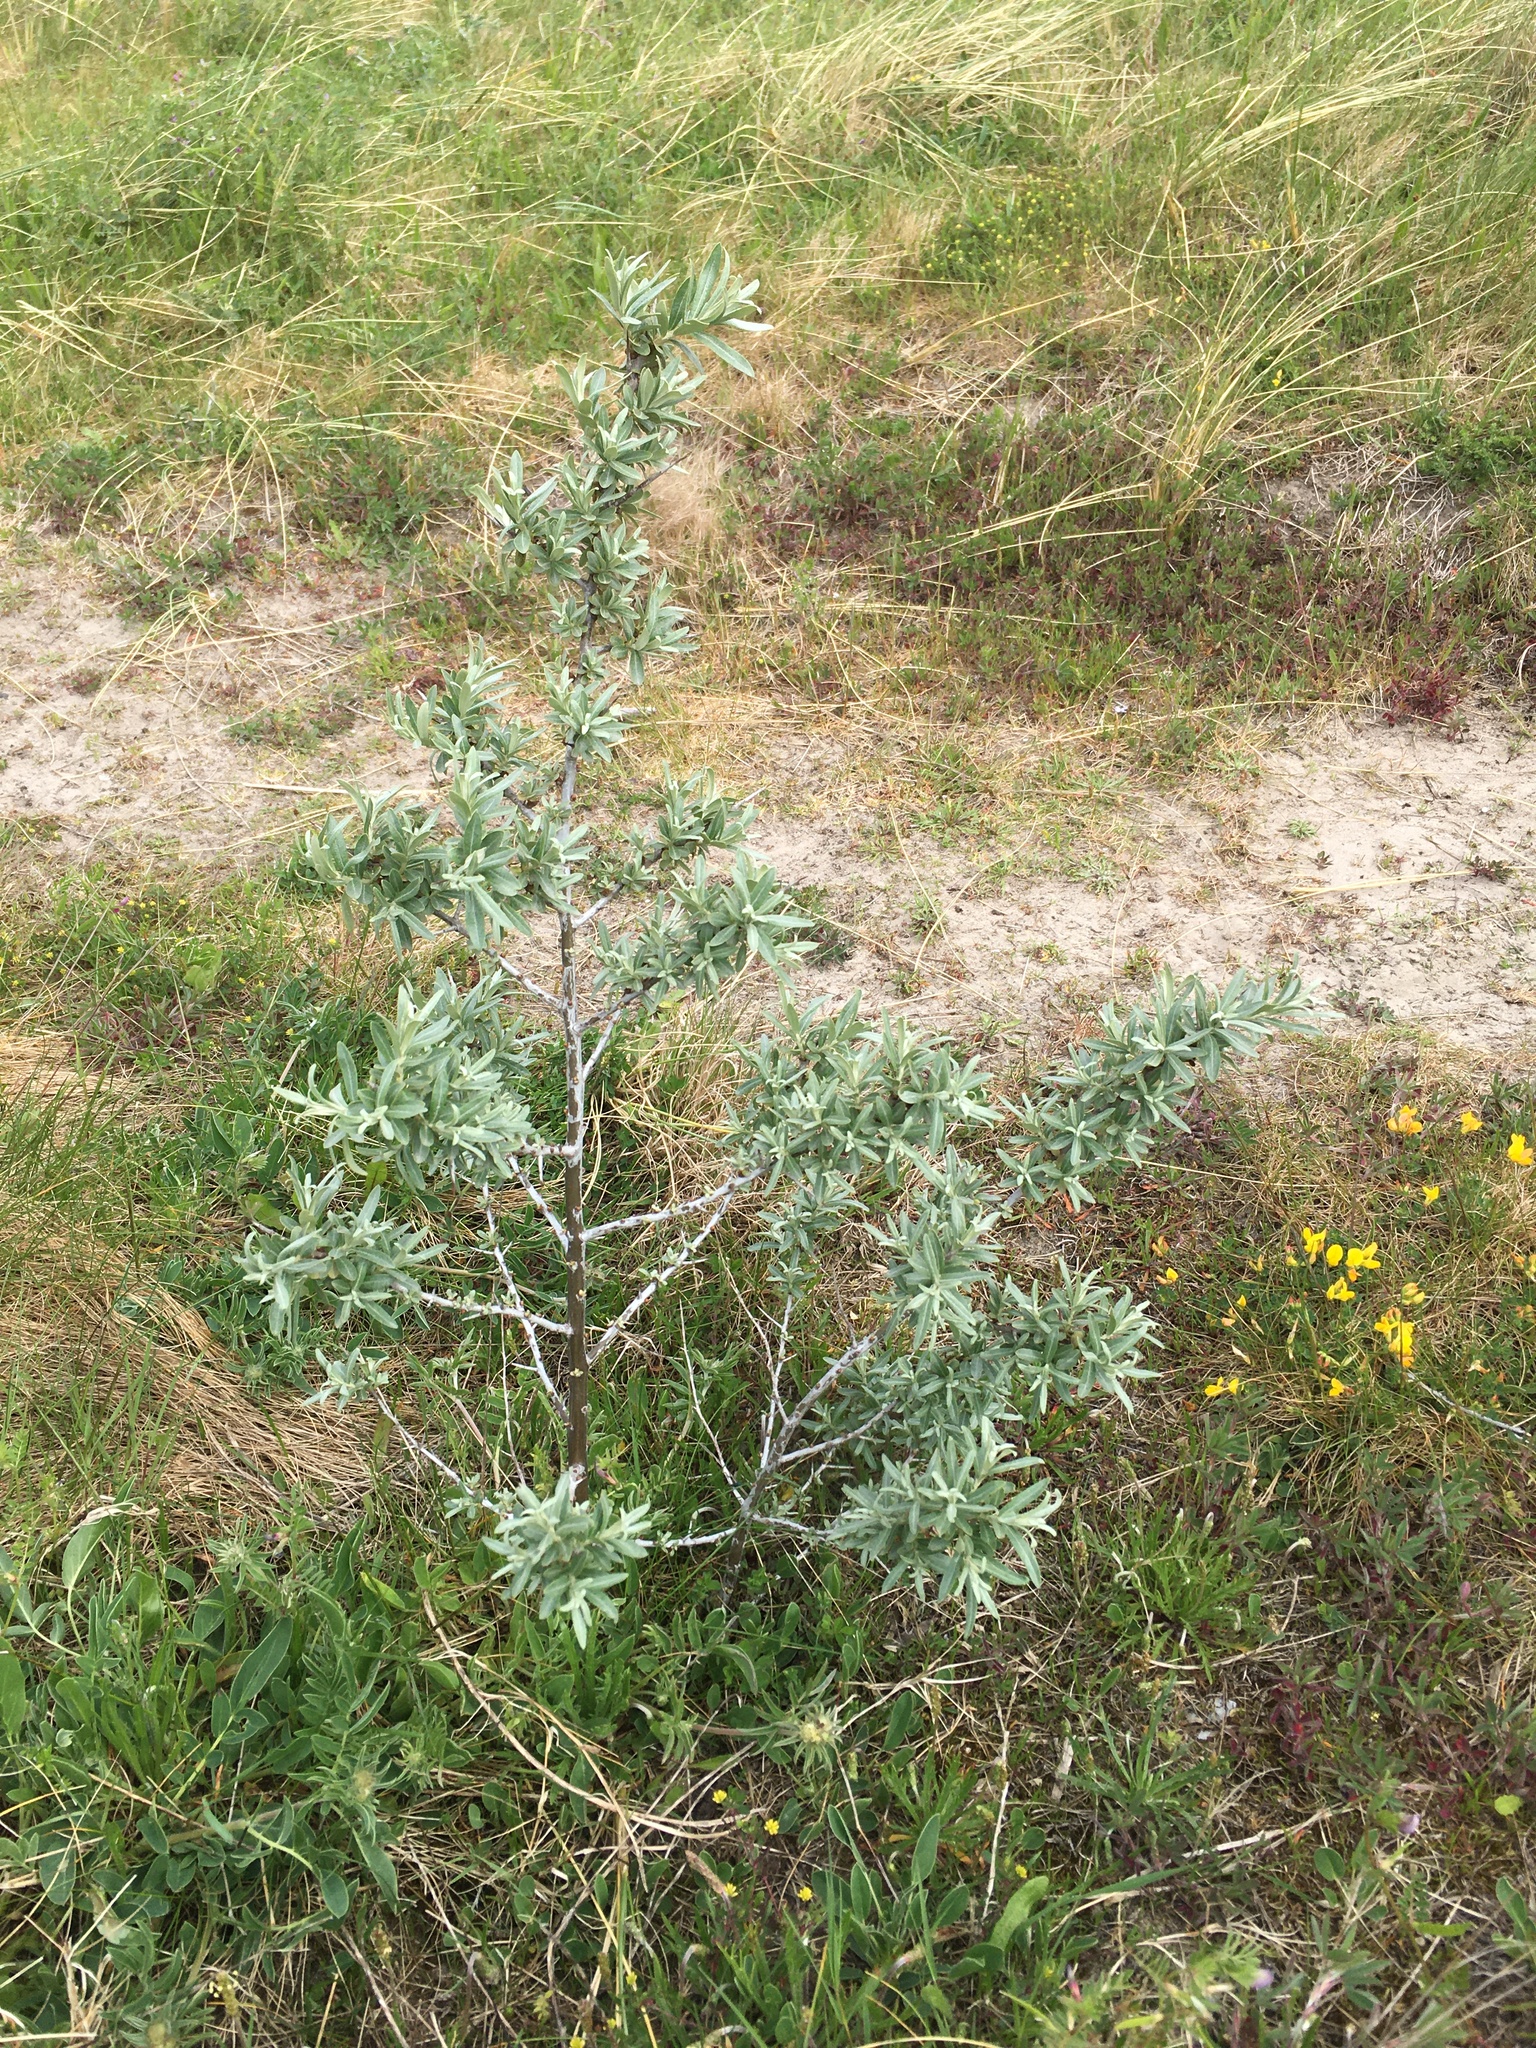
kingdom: Plantae
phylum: Tracheophyta
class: Magnoliopsida
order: Rosales
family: Elaeagnaceae
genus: Hippophae
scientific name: Hippophae rhamnoides
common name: Sea-buckthorn
